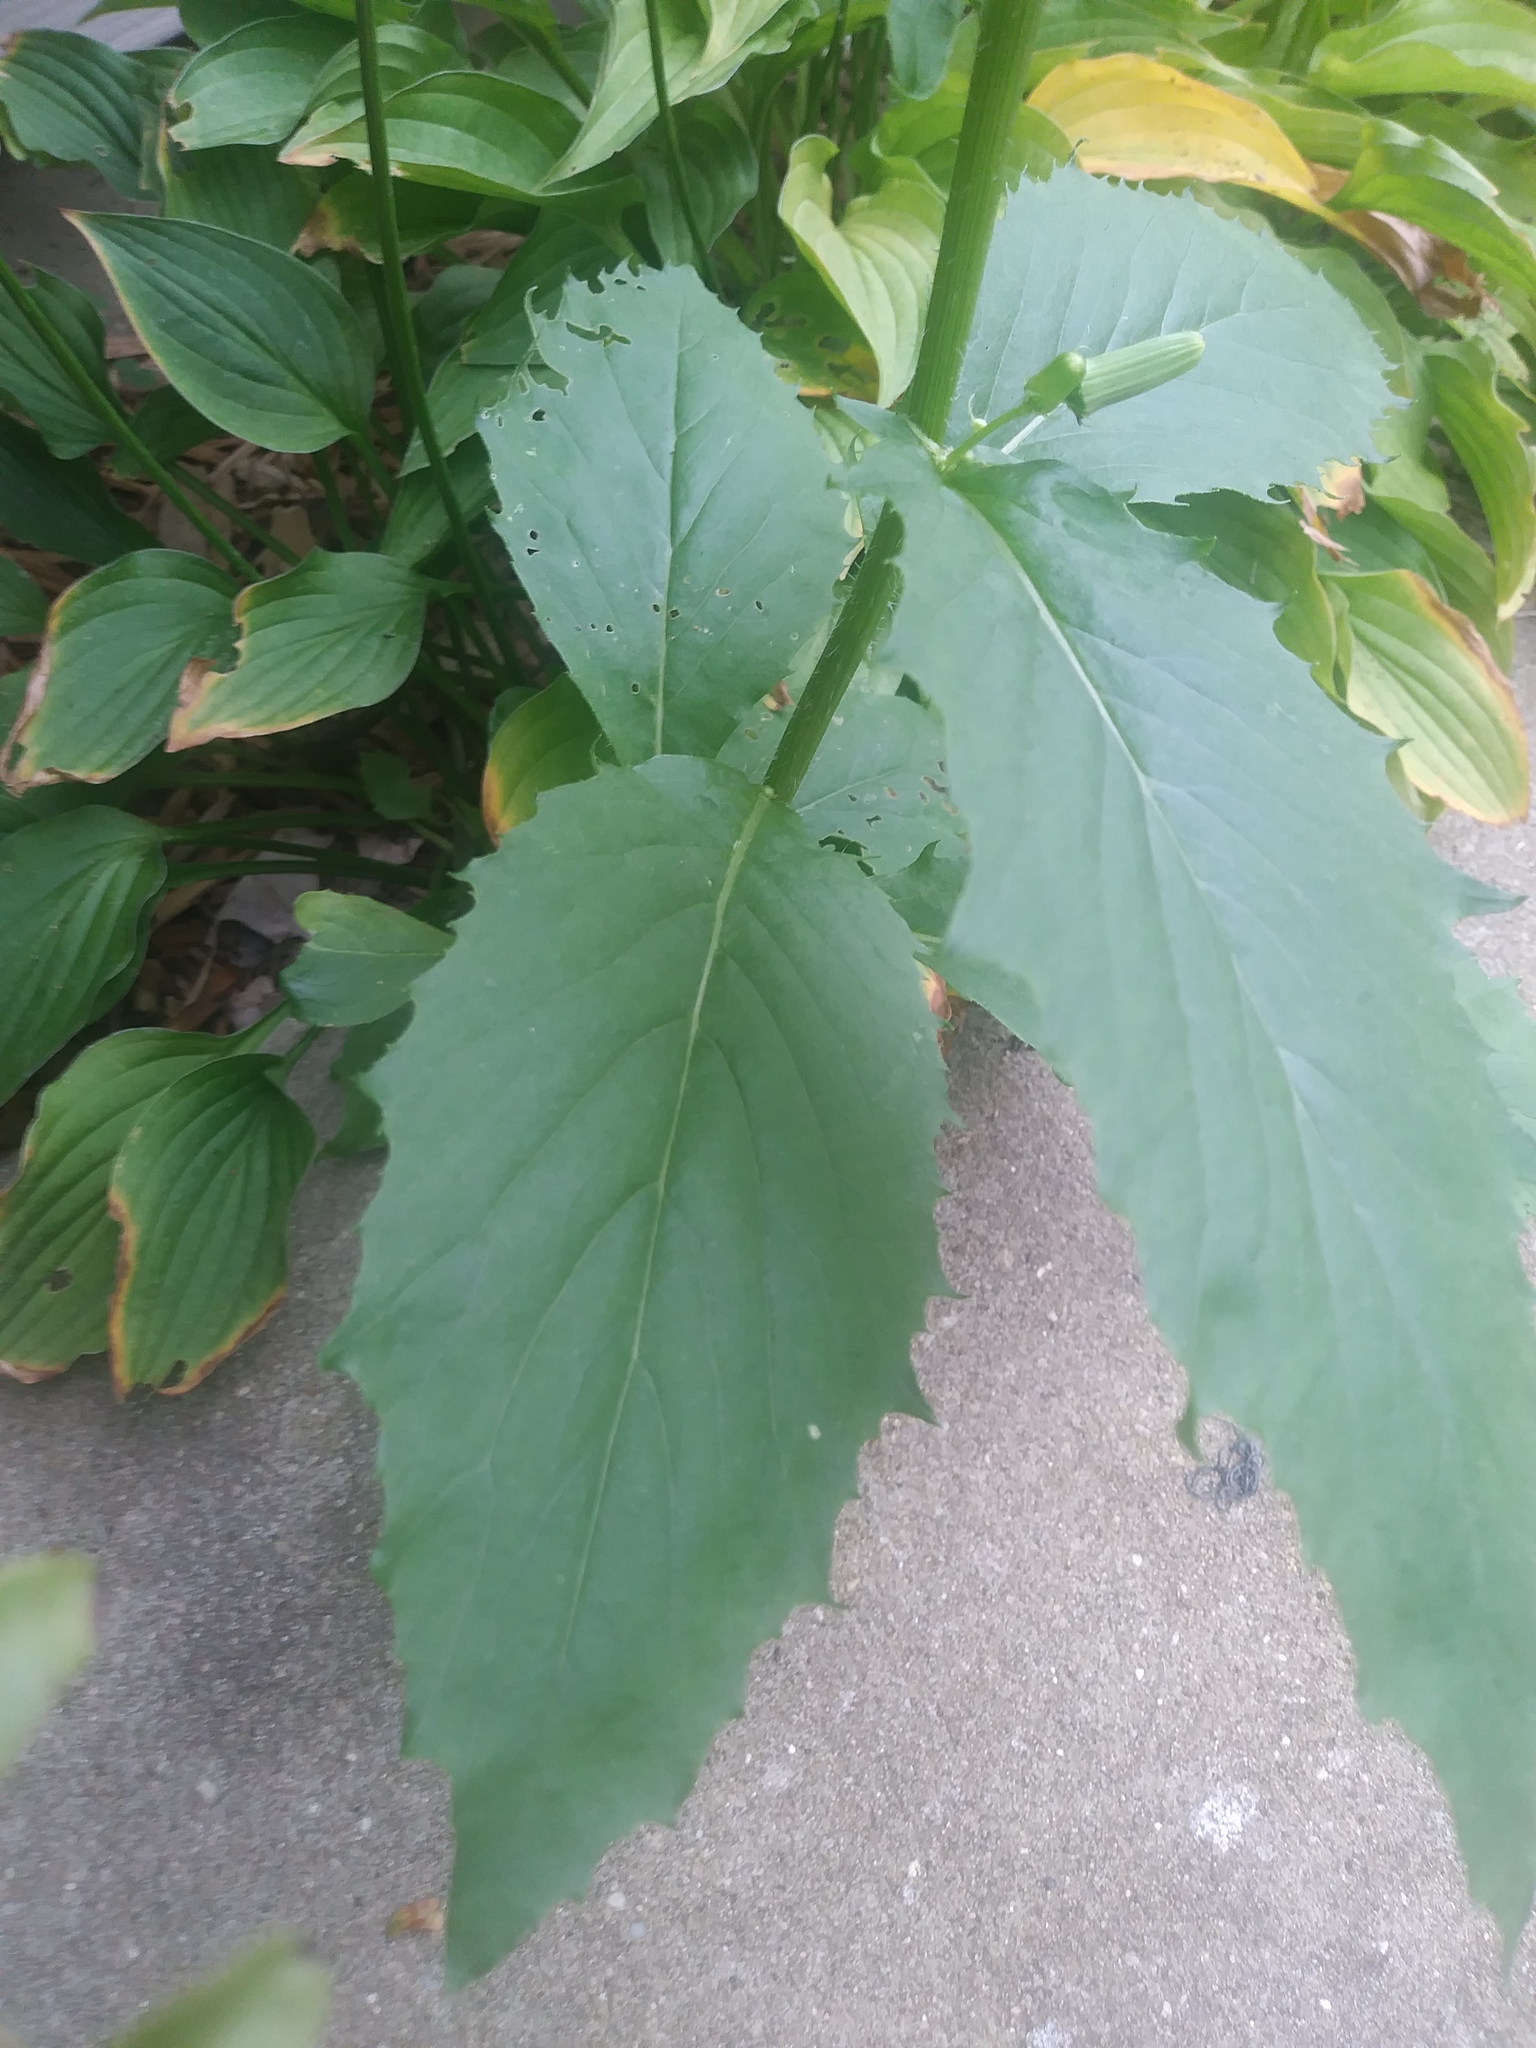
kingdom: Plantae
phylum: Tracheophyta
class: Magnoliopsida
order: Asterales
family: Asteraceae
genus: Erechtites
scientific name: Erechtites hieraciifolius
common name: American burnweed
